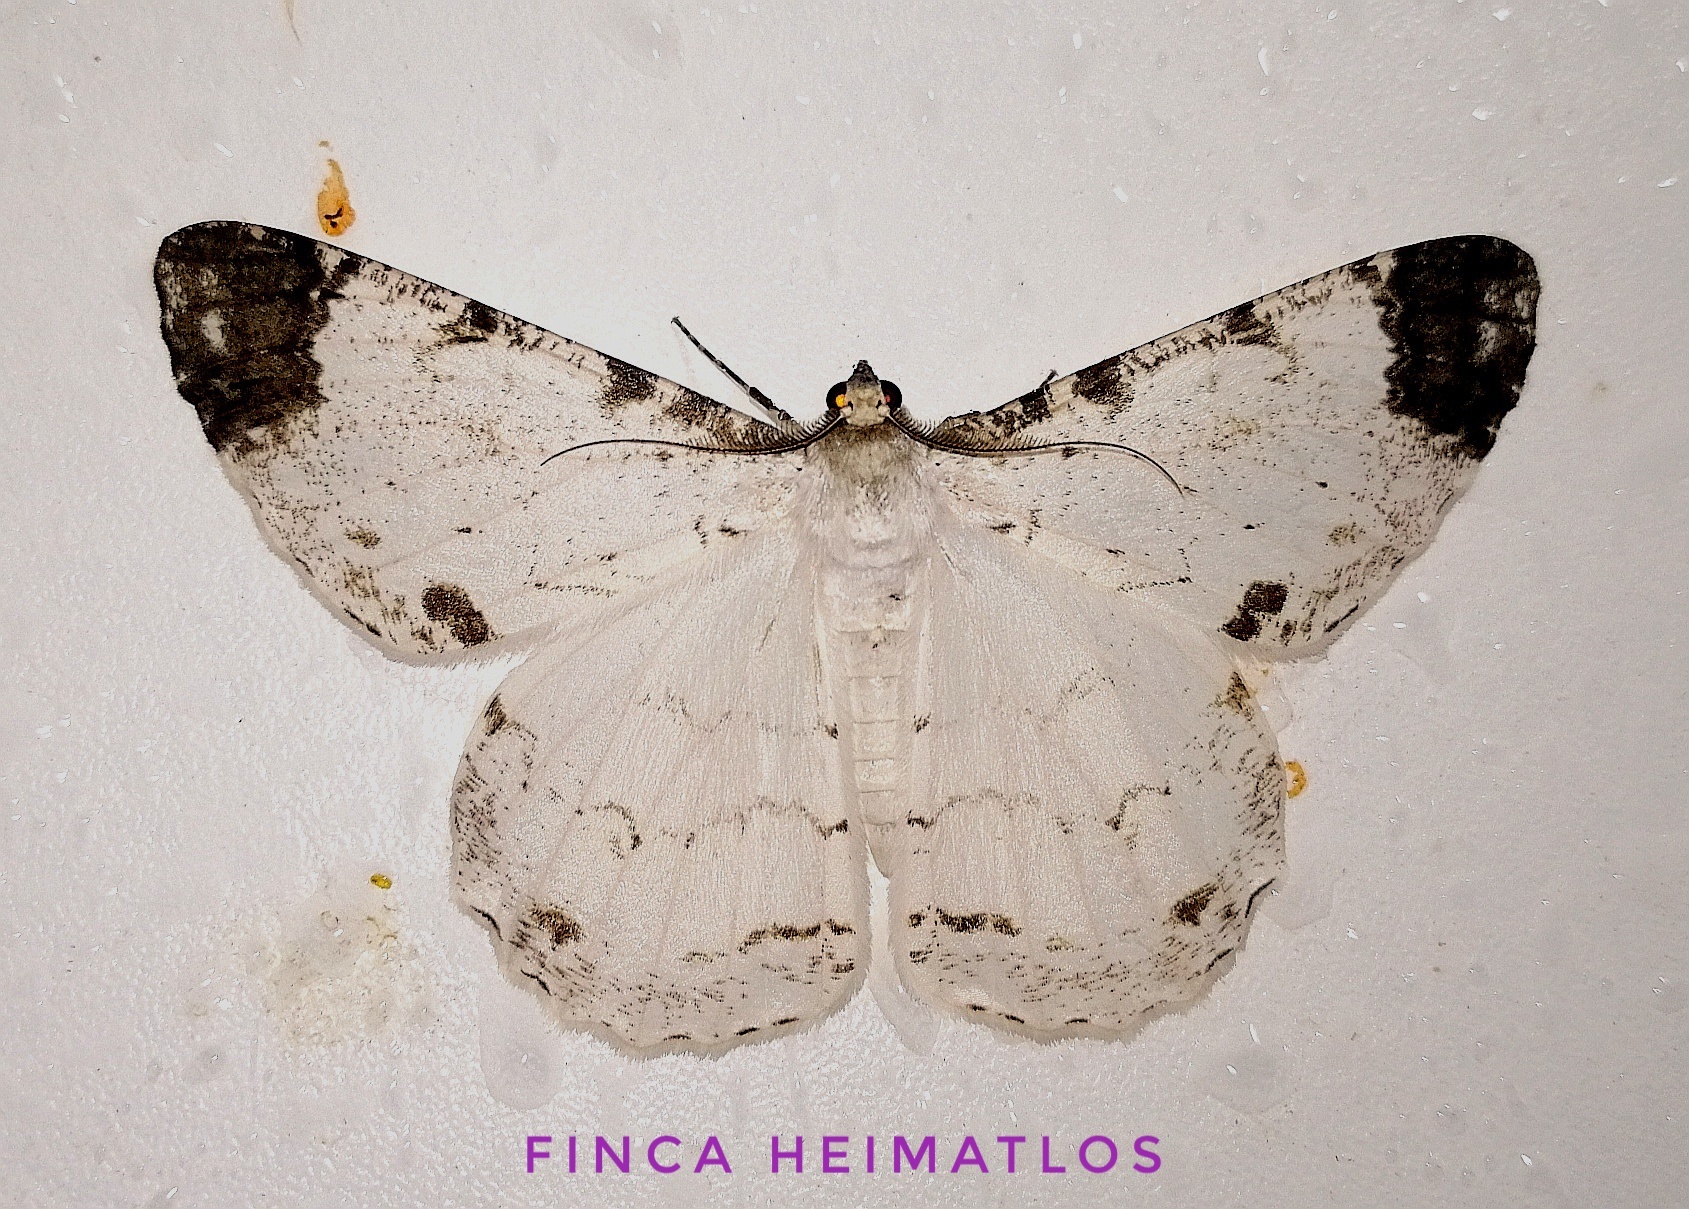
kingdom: Animalia
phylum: Arthropoda
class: Insecta
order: Lepidoptera
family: Geometridae
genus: Epimecis
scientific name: Epimecis puellaria
